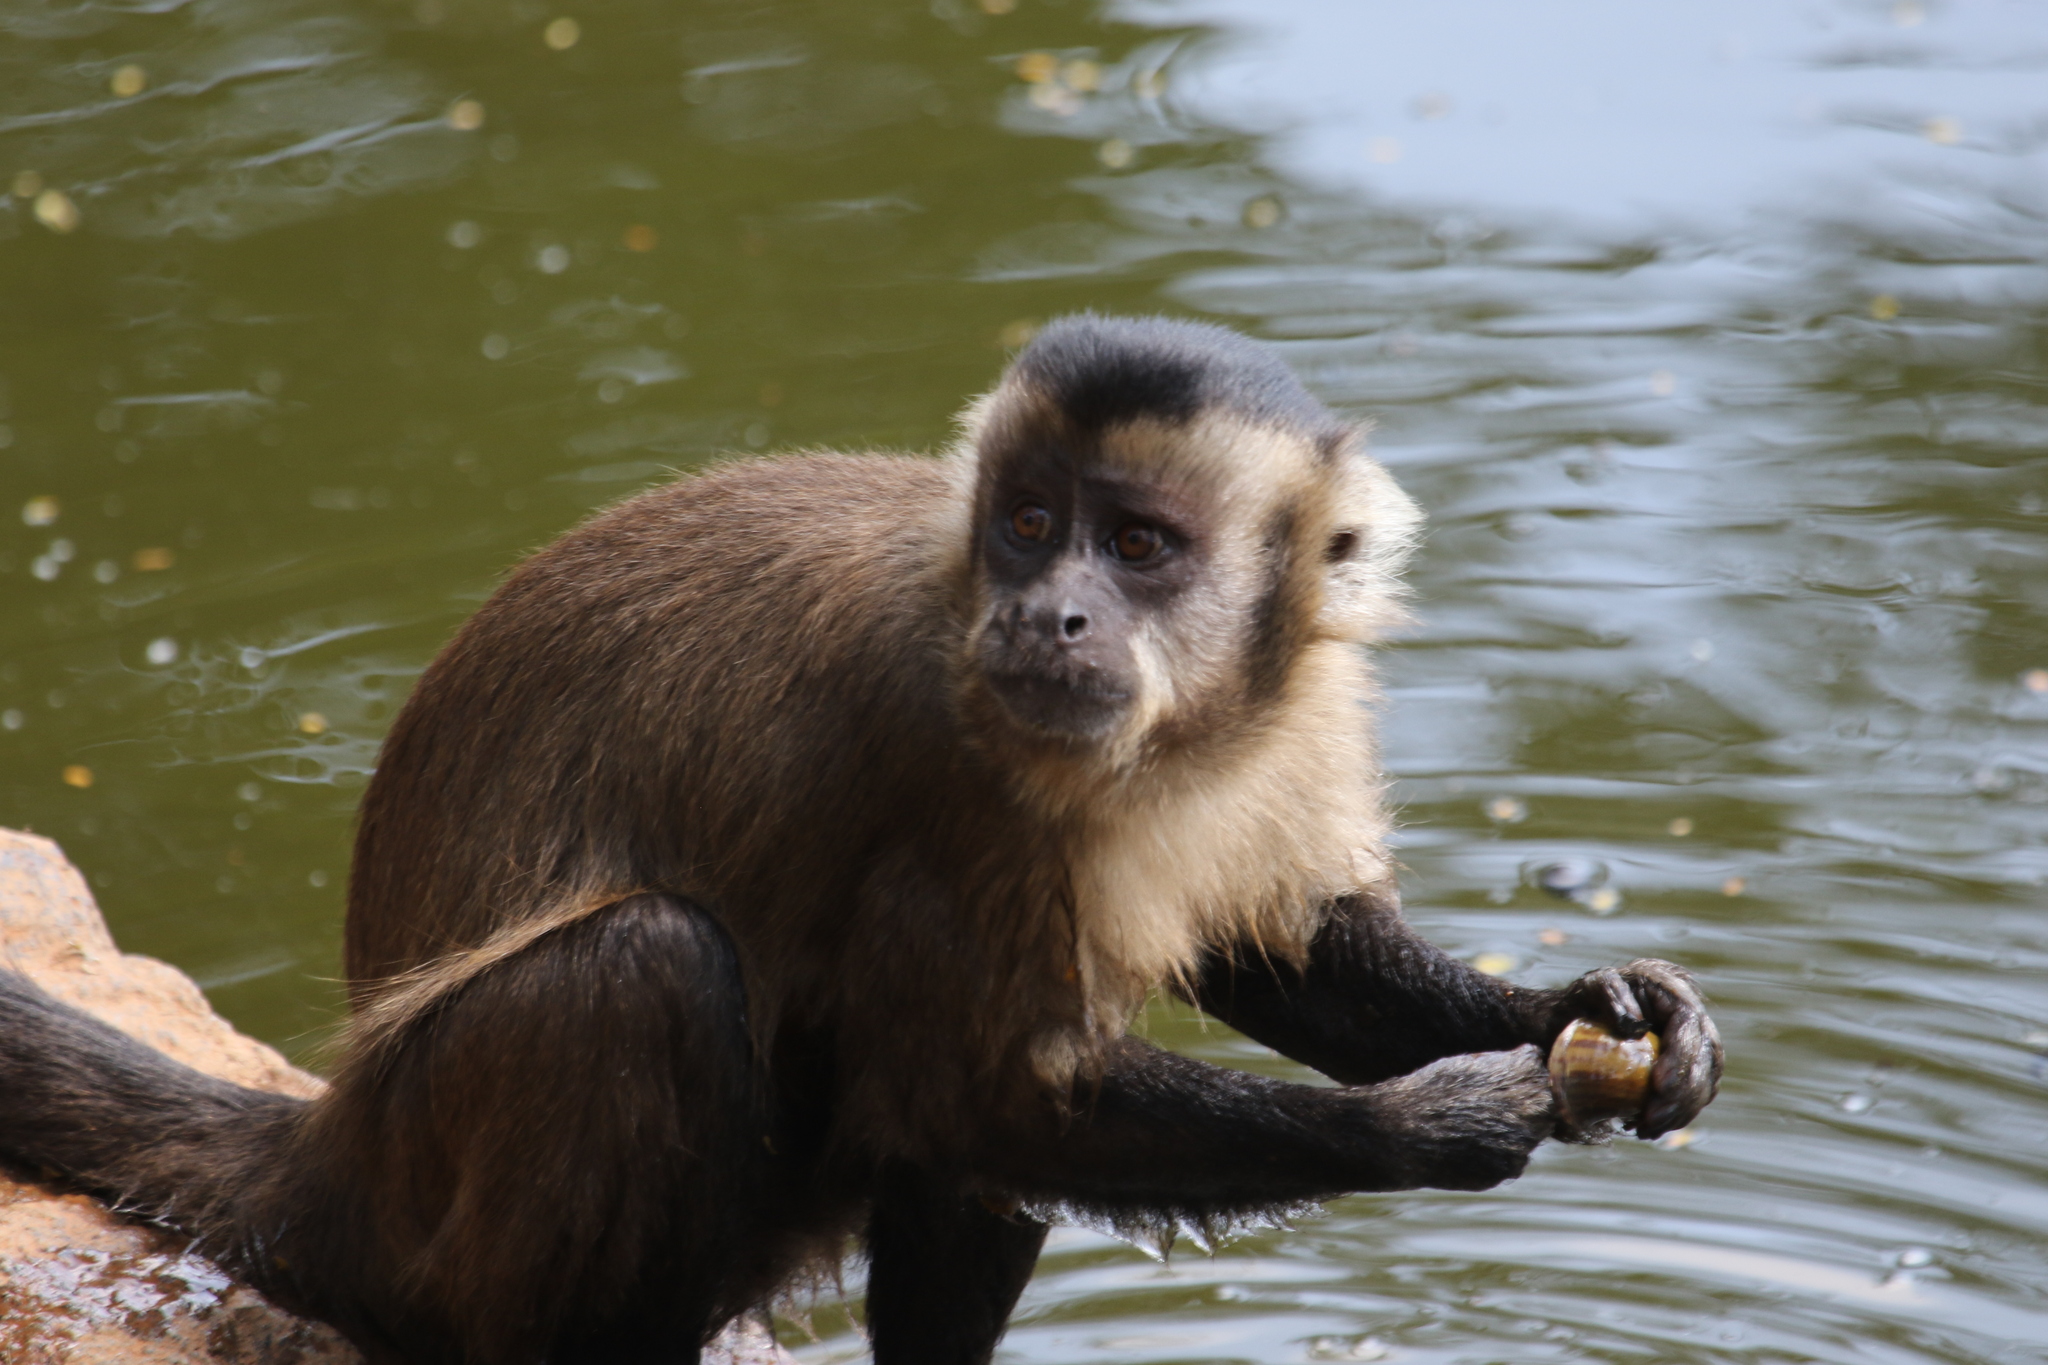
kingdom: Animalia
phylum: Chordata
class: Mammalia
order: Primates
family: Cebidae
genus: Sapajus
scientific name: Sapajus nigritus
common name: Black capuchin
